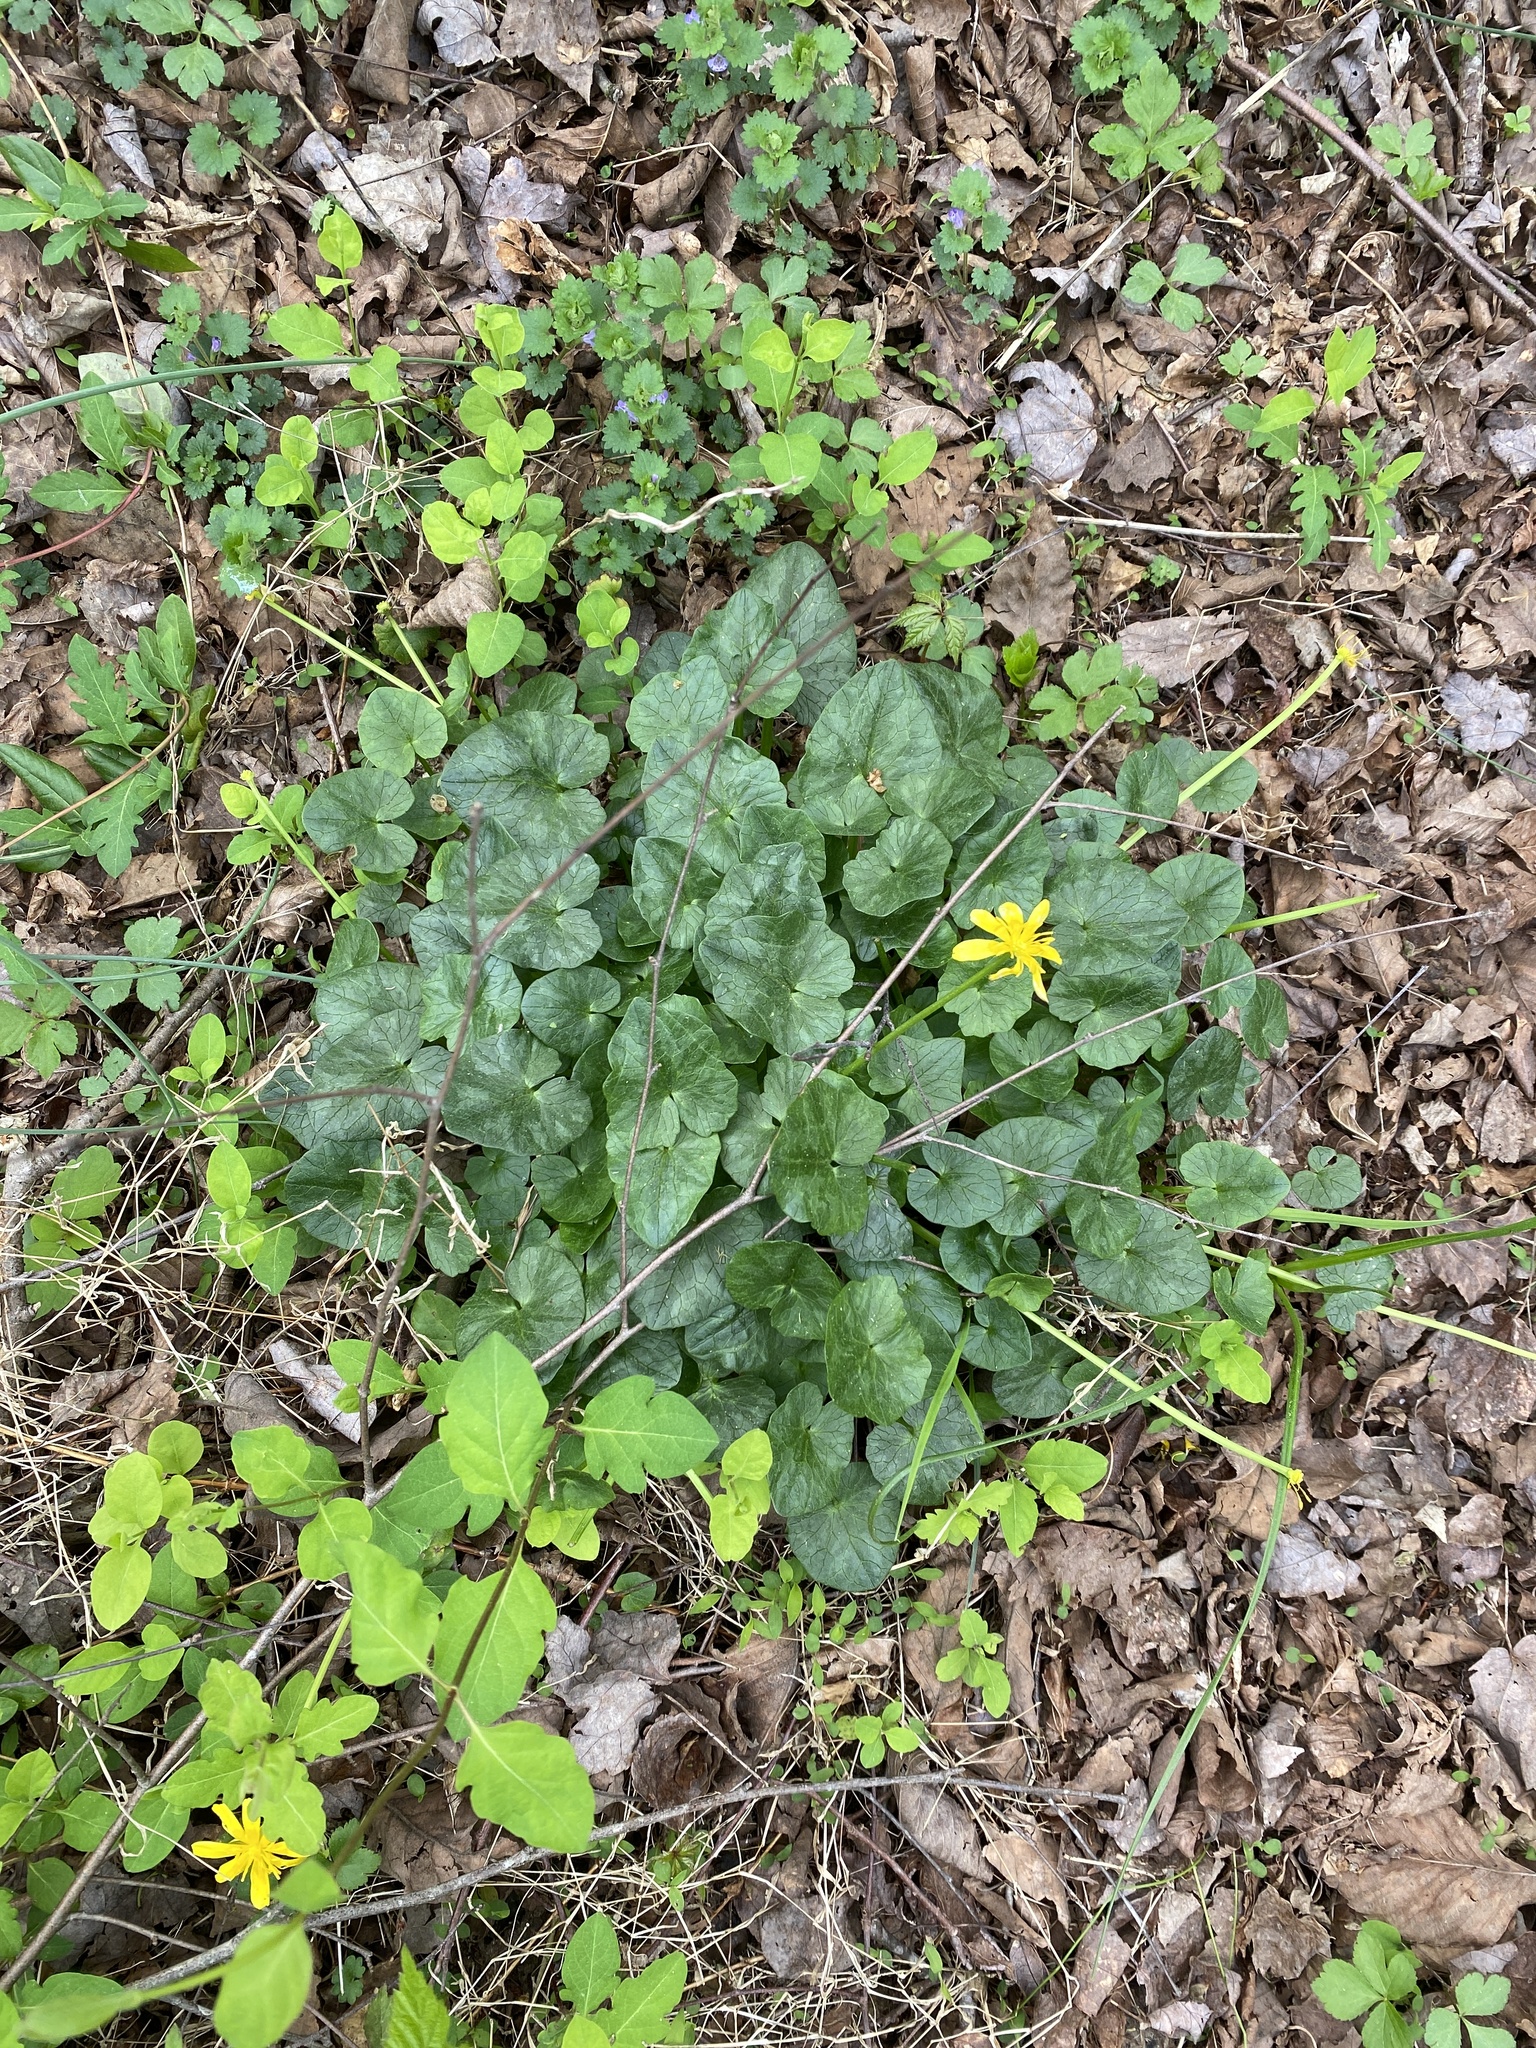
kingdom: Plantae
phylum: Tracheophyta
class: Magnoliopsida
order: Ranunculales
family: Ranunculaceae
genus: Ficaria
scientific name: Ficaria verna
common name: Lesser celandine
